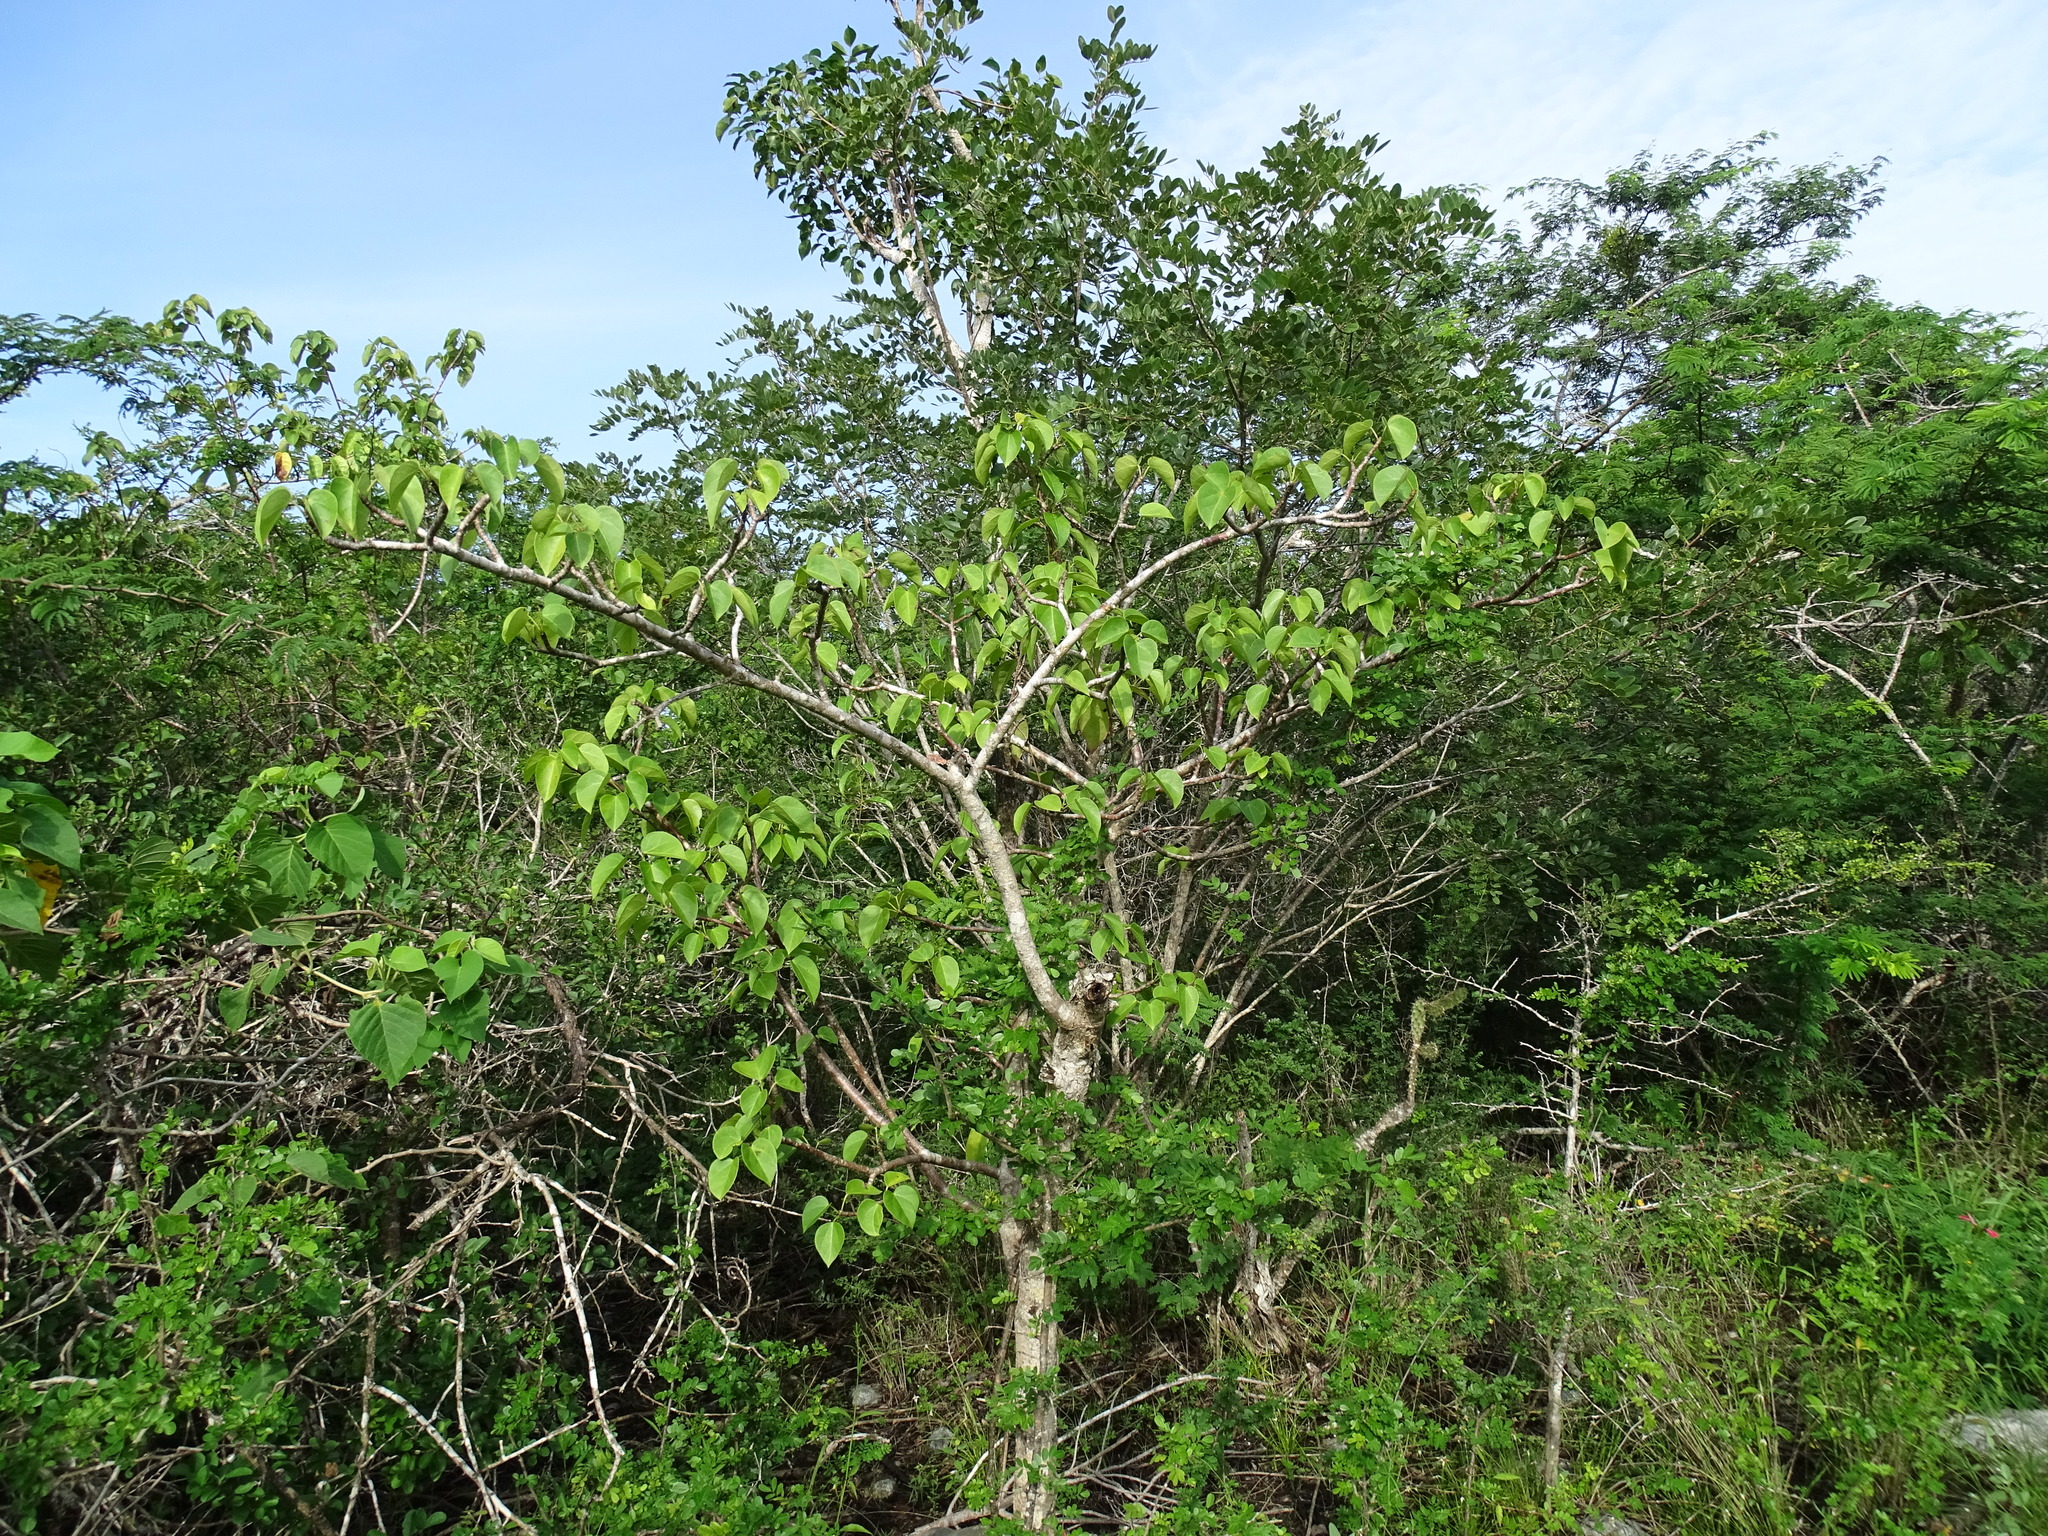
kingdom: Plantae
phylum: Tracheophyta
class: Magnoliopsida
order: Malpighiales
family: Euphorbiaceae
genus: Jatropha
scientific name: Jatropha gaumeri
